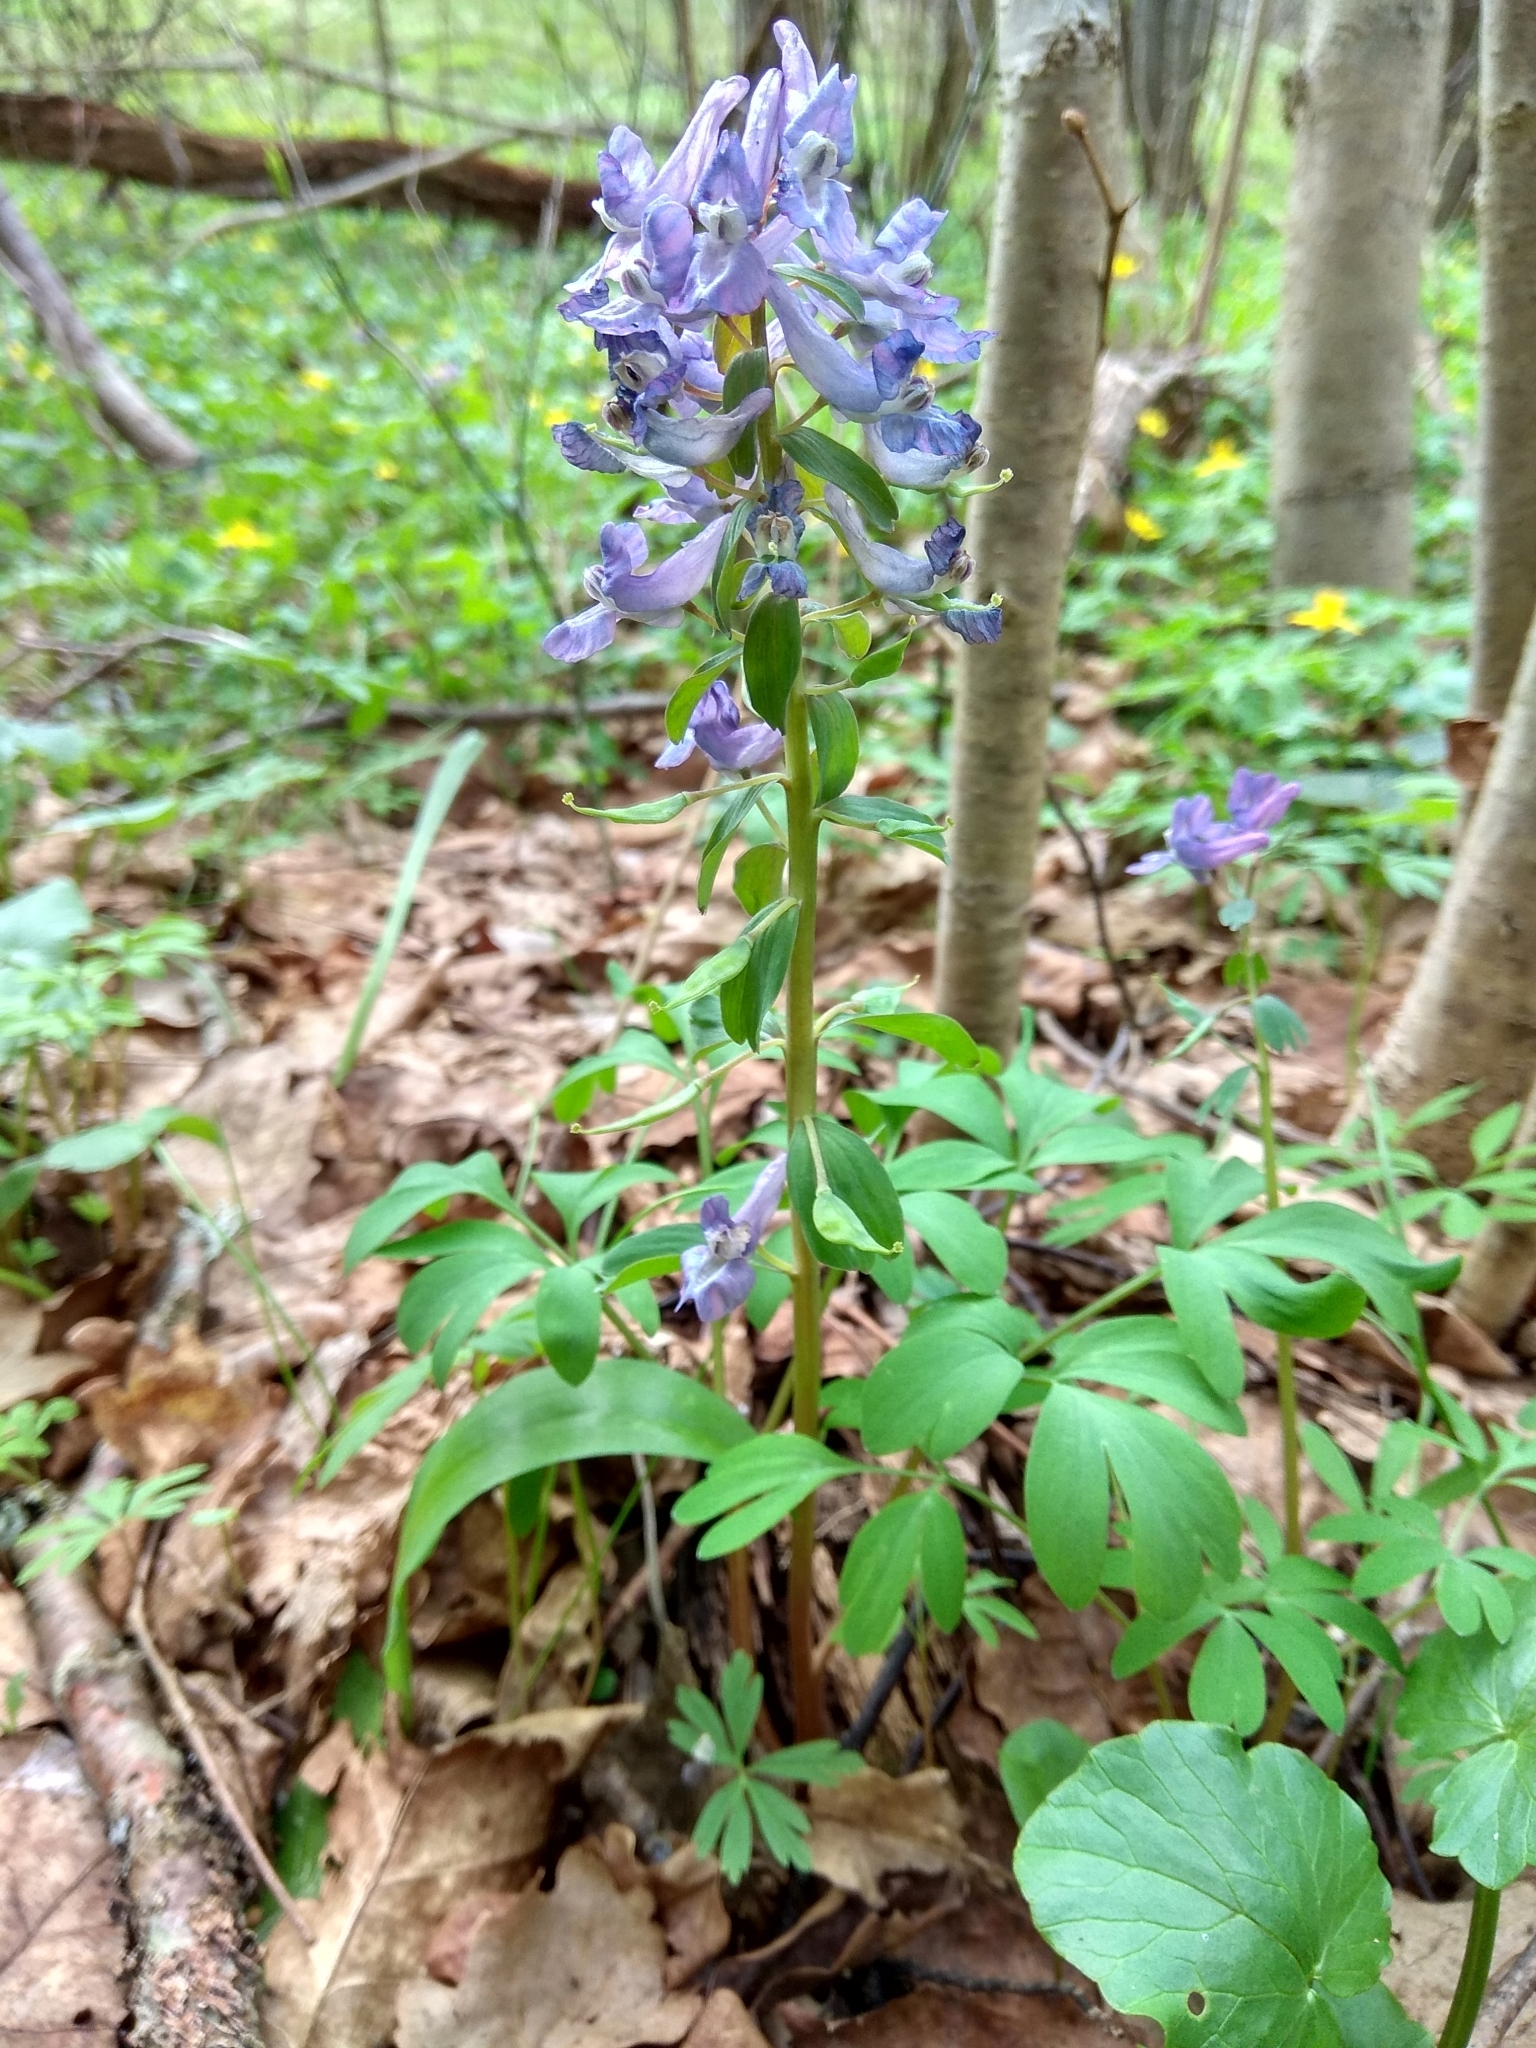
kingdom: Plantae
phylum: Tracheophyta
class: Magnoliopsida
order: Ranunculales
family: Papaveraceae
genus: Corydalis
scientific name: Corydalis solida
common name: Bird-in-a-bush
